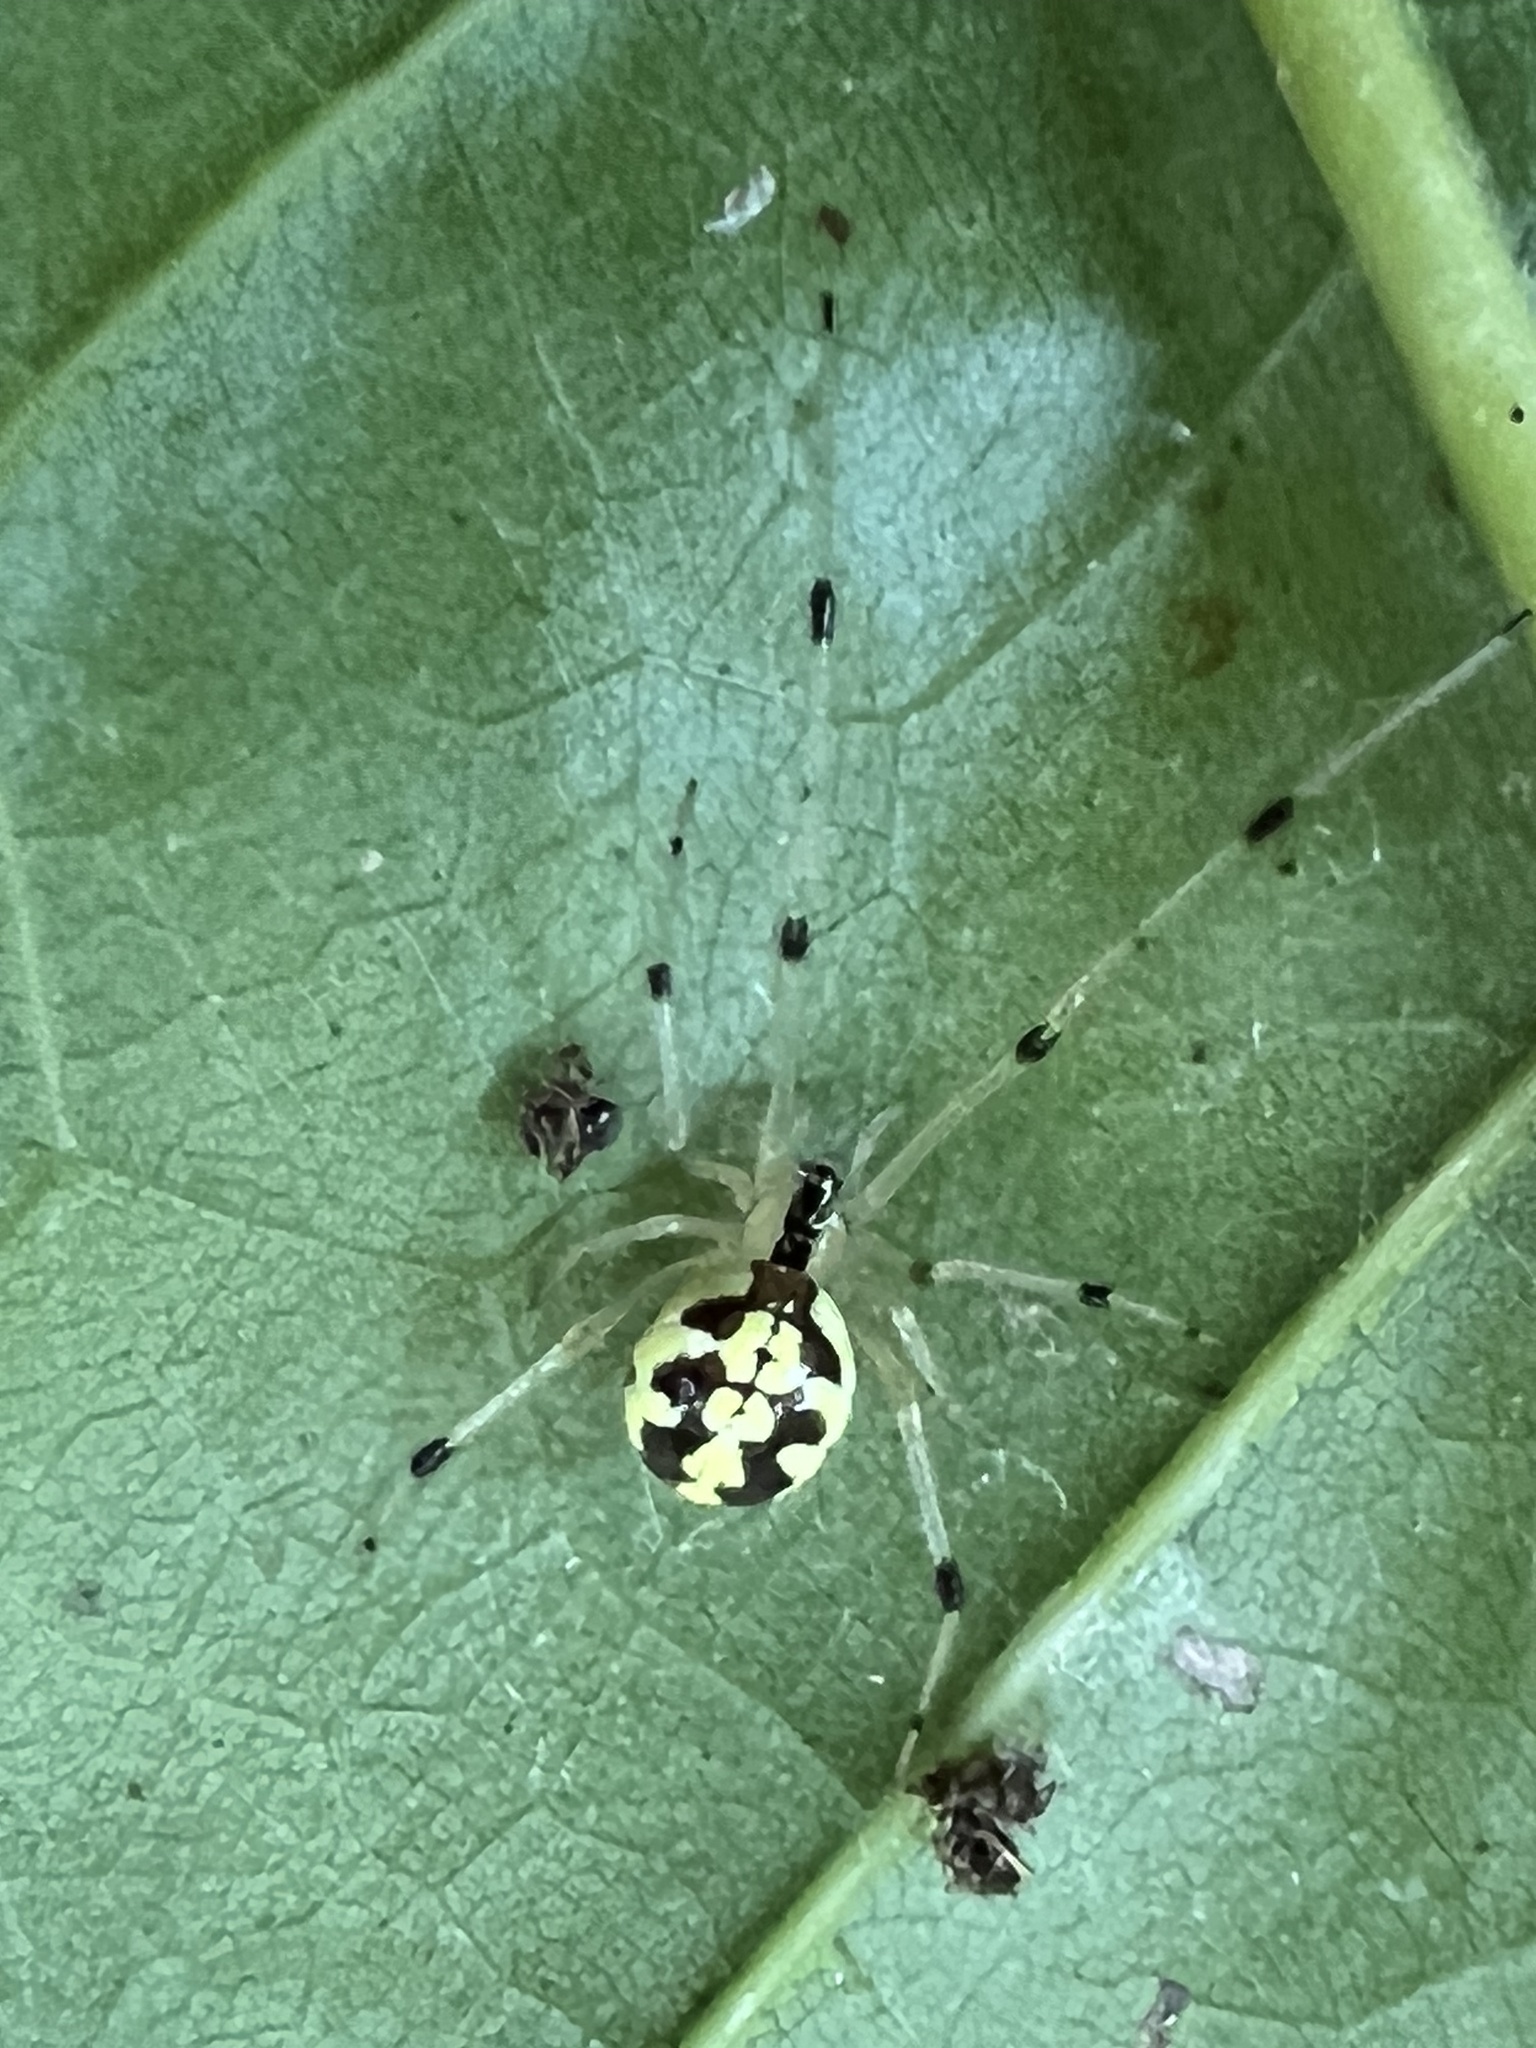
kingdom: Animalia
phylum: Arthropoda
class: Arachnida
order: Araneae
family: Theridiidae
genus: Phylloneta
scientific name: Phylloneta pictipes
